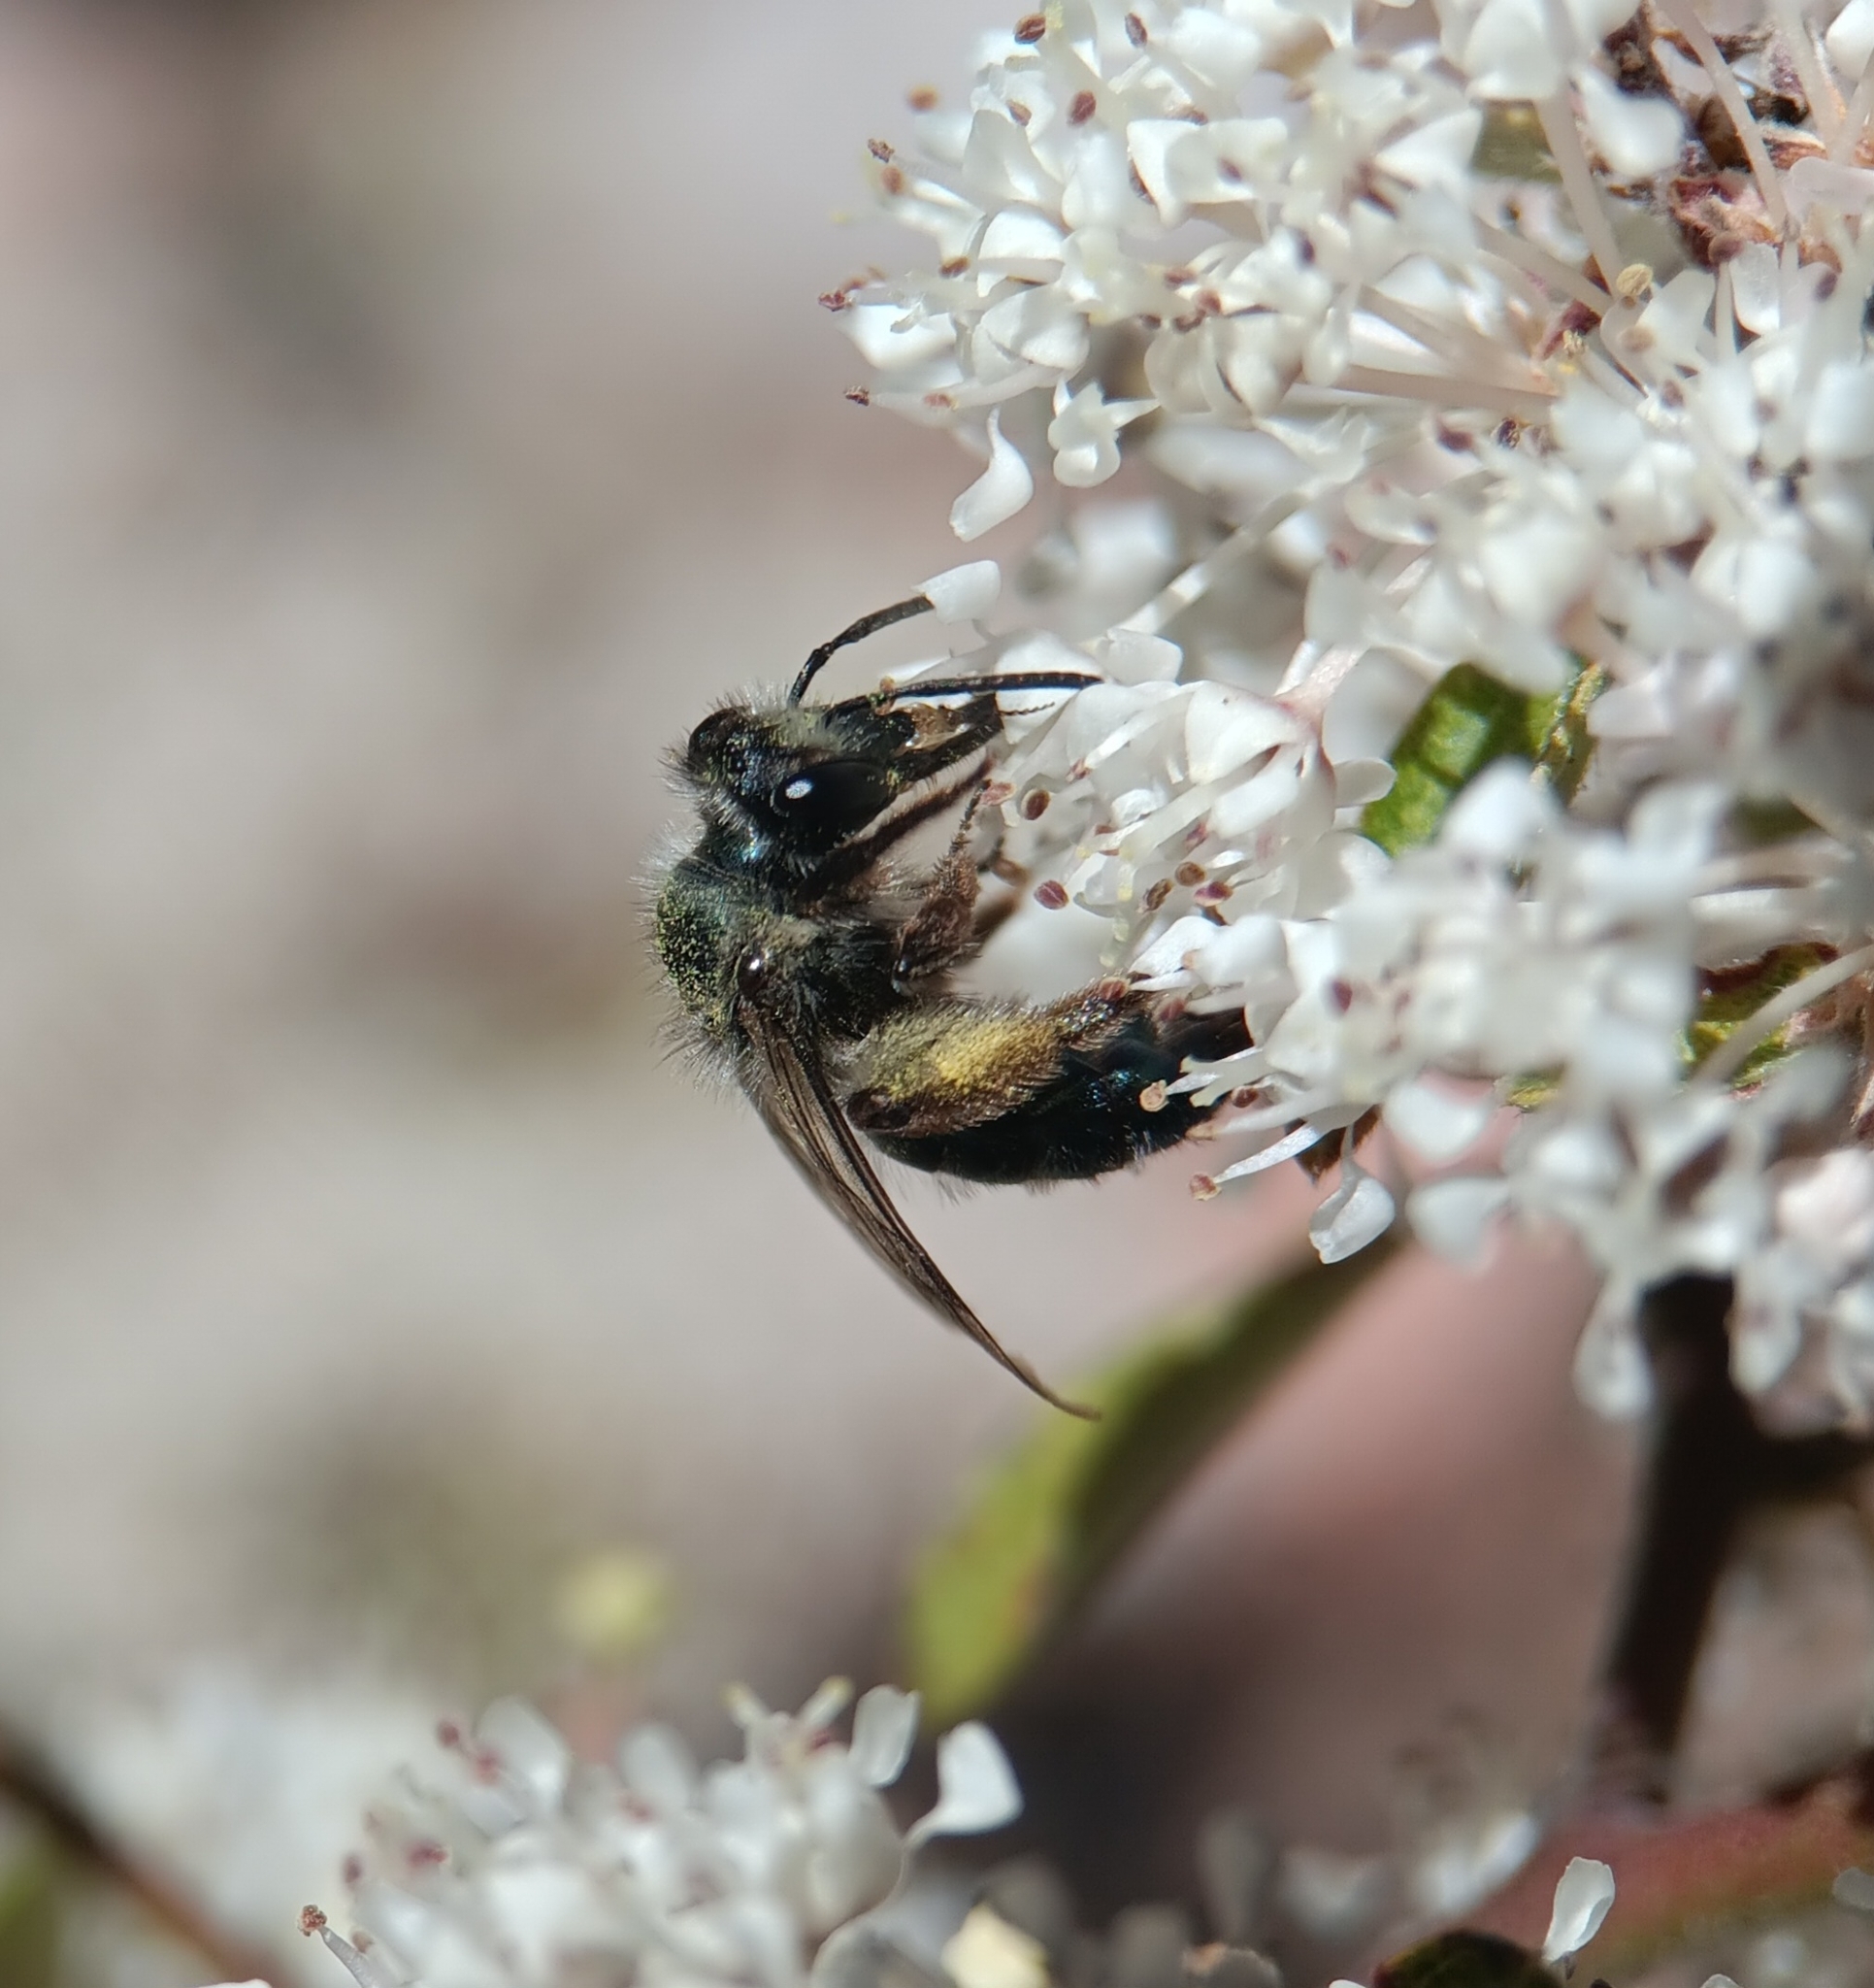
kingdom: Animalia
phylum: Arthropoda
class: Insecta
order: Hymenoptera
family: Andrenidae
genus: Andrena
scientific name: Andrena cerasifolii
